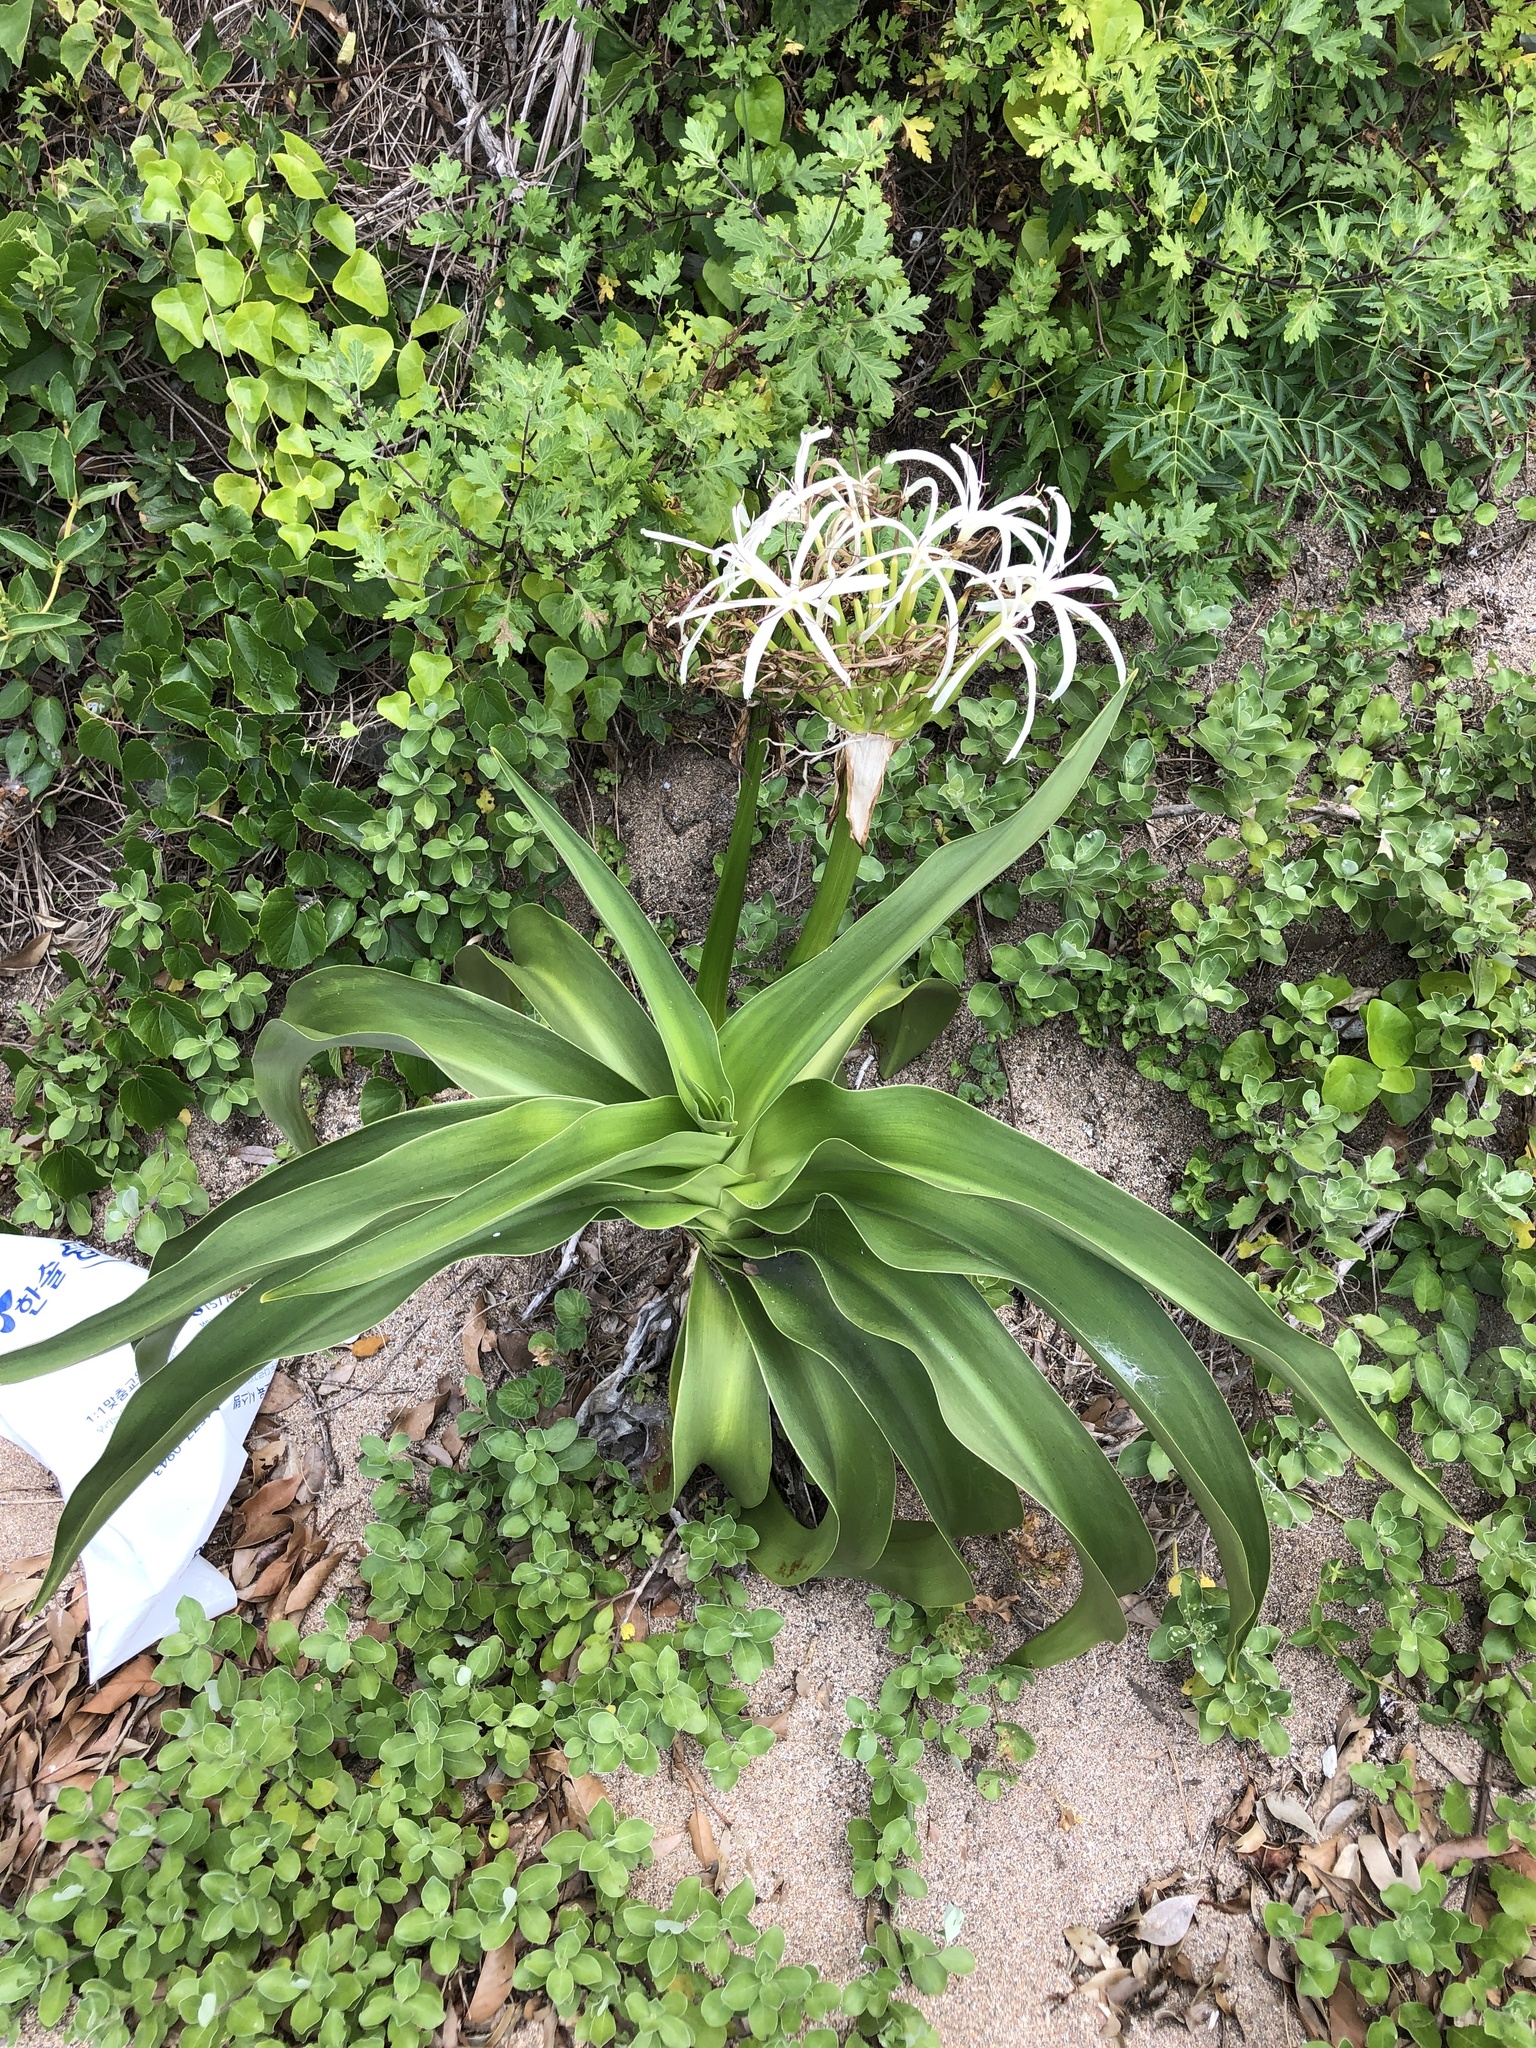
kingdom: Plantae
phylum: Tracheophyta
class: Liliopsida
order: Asparagales
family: Amaryllidaceae
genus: Crinum
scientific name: Crinum asiaticum
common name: Poisonbulb
